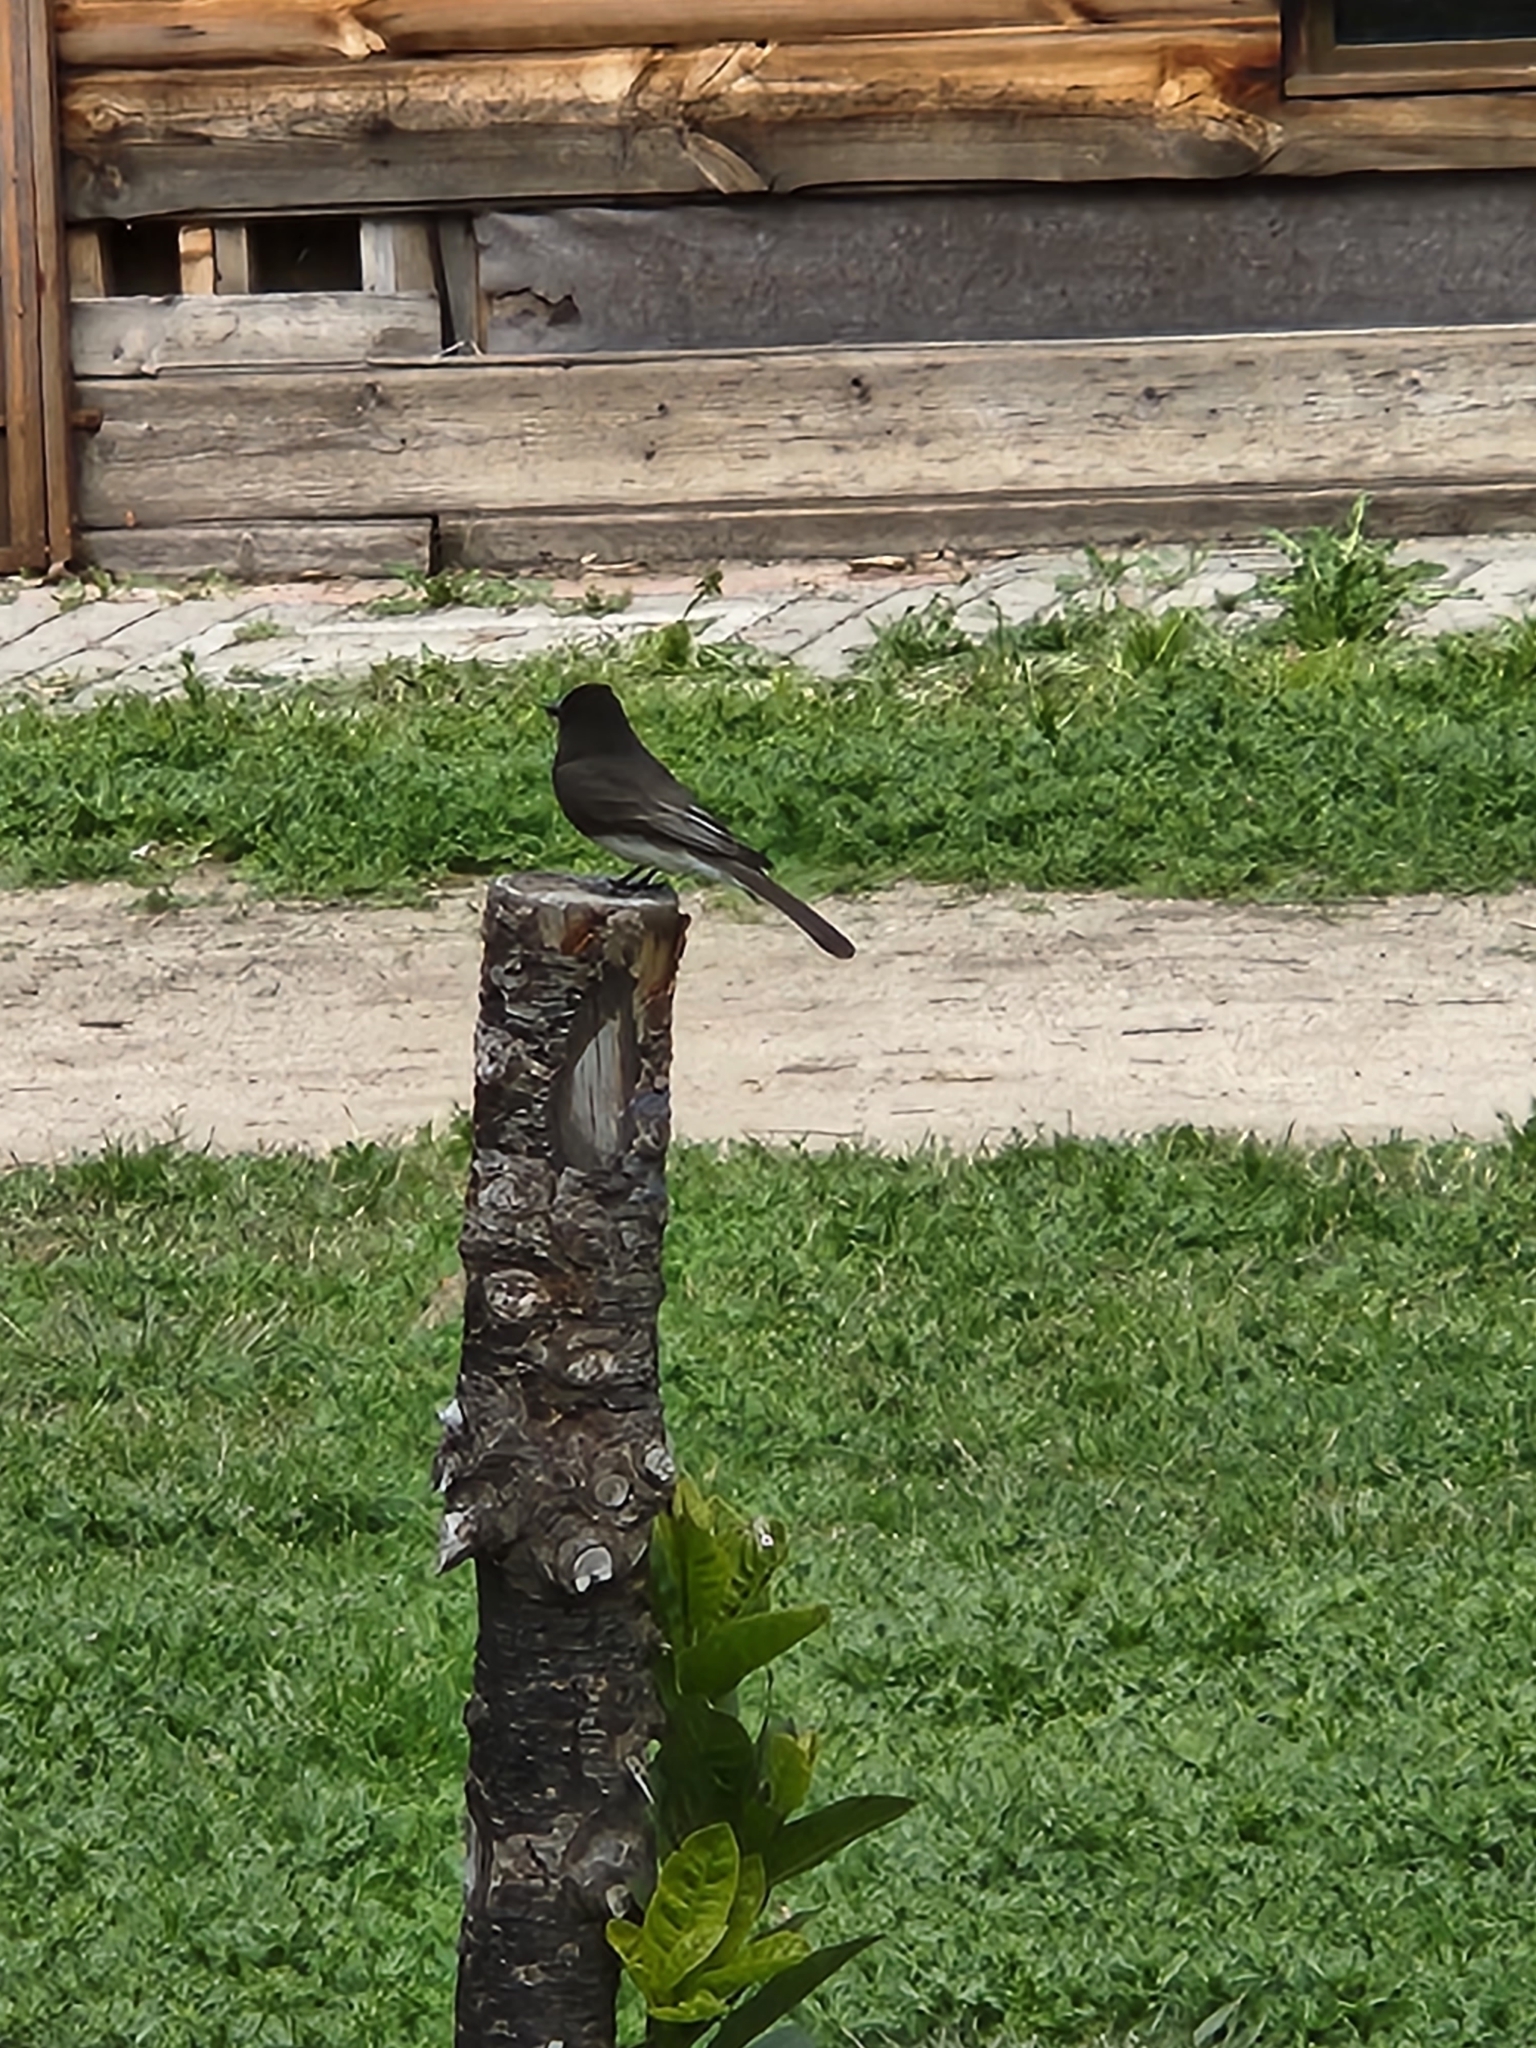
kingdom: Animalia
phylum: Chordata
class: Aves
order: Passeriformes
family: Tyrannidae
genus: Sayornis
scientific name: Sayornis nigricans
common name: Black phoebe
